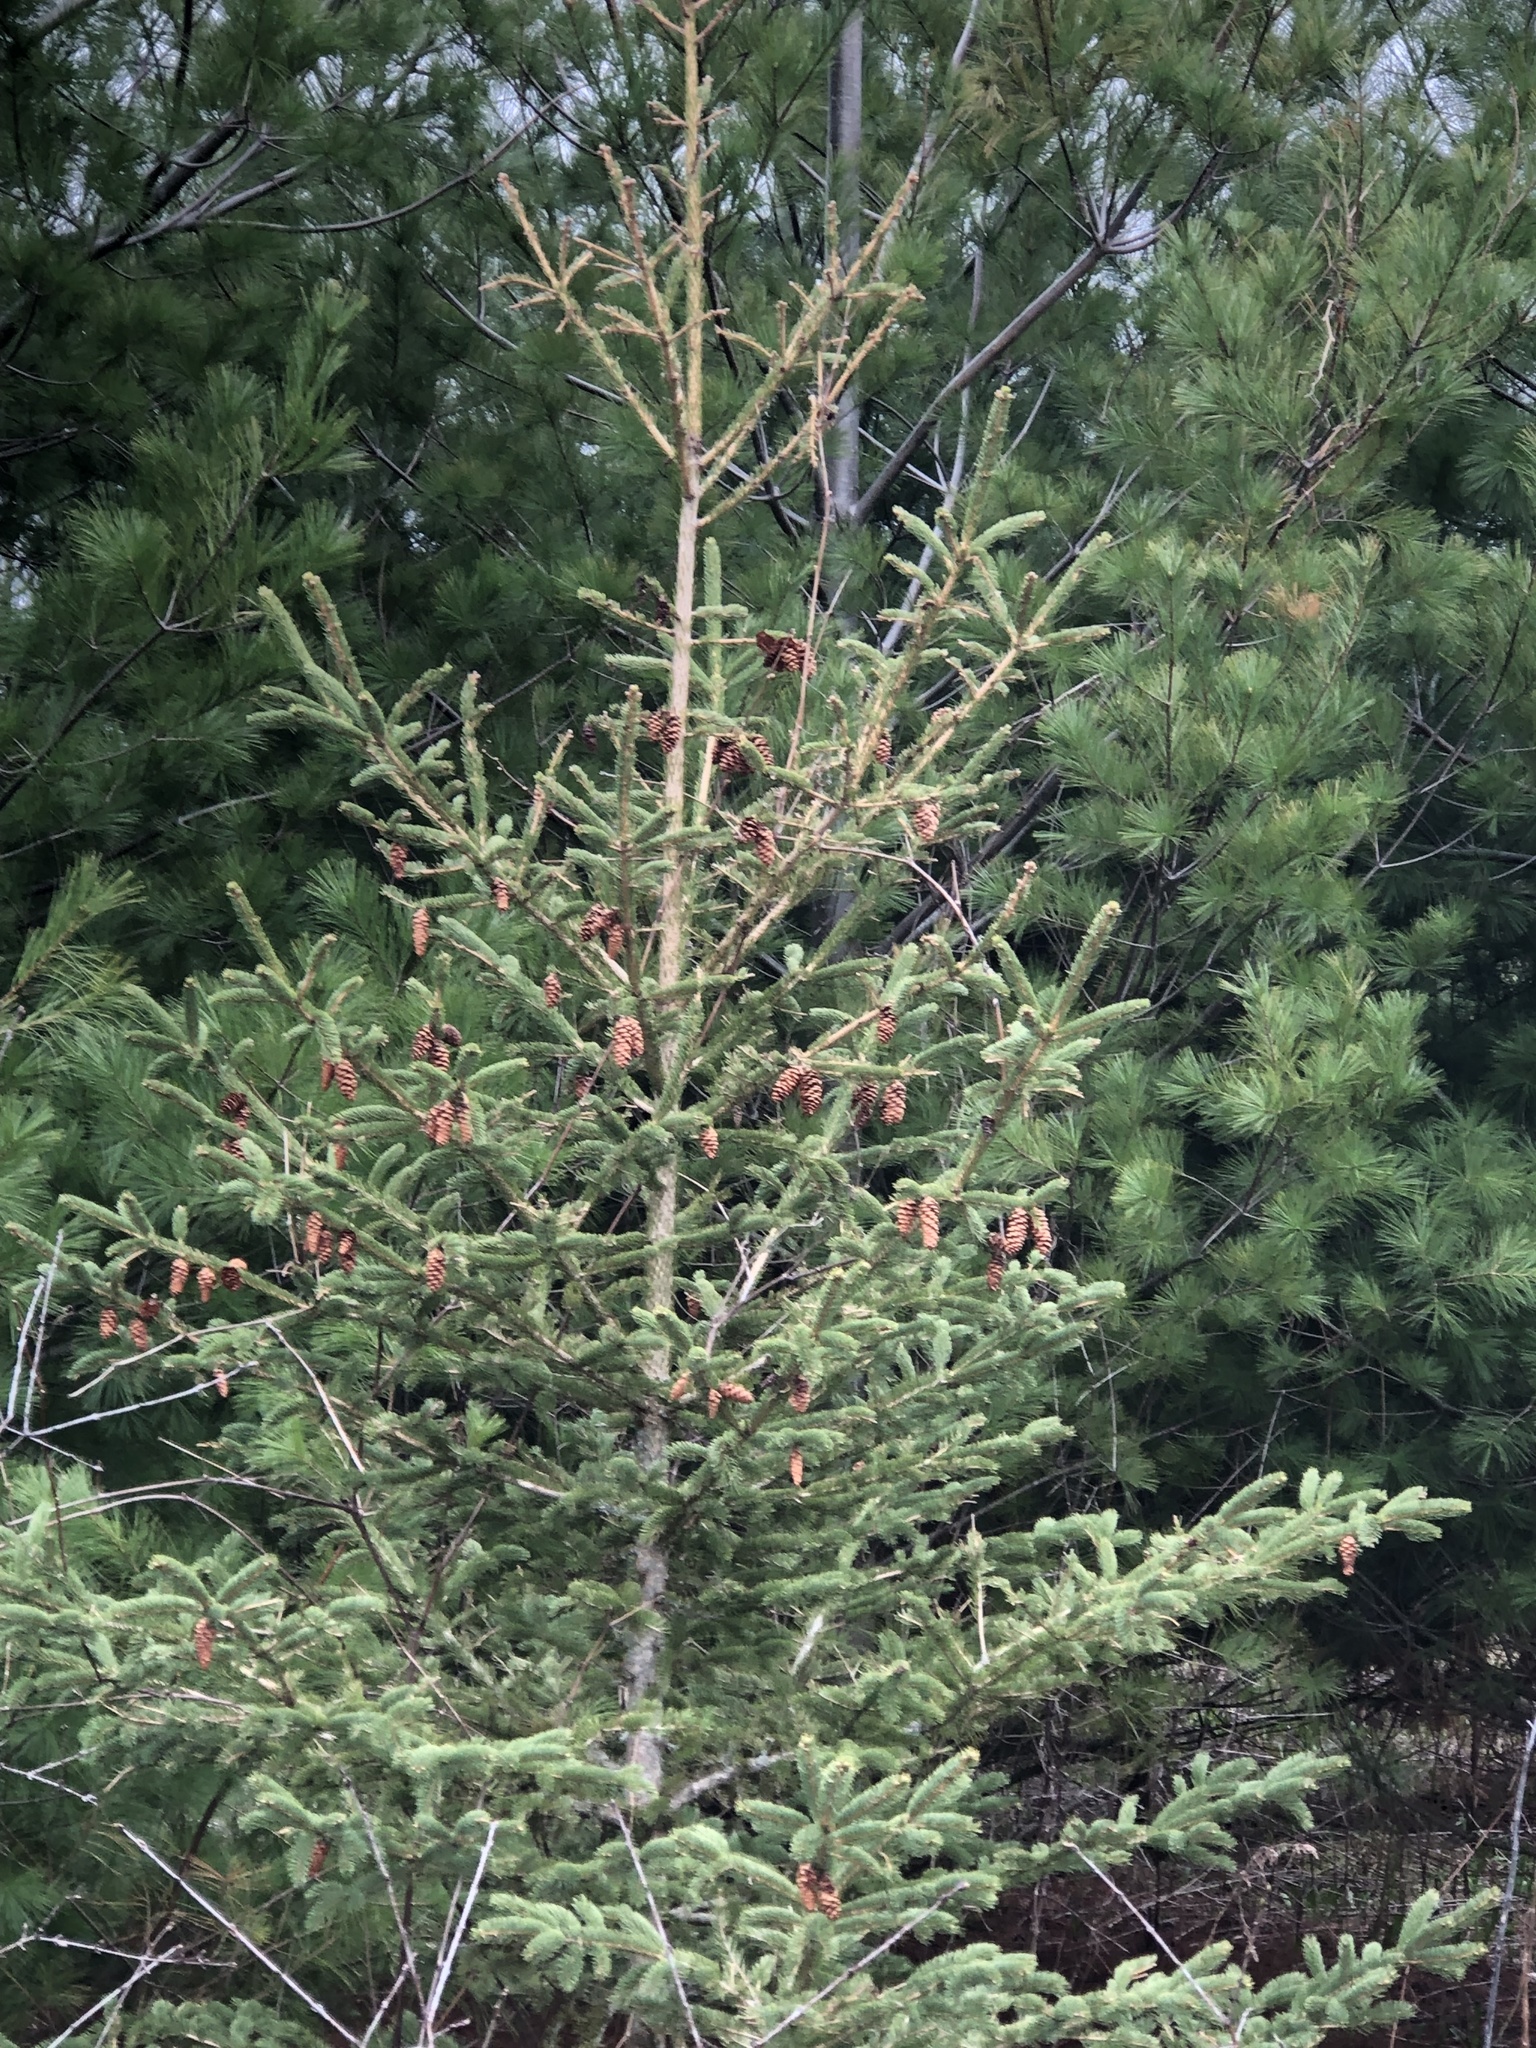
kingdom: Animalia
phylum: Arthropoda
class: Insecta
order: Diptera
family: Tephritidae
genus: Eurosta
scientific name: Eurosta solidaginis
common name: Goldenrod gall fly
